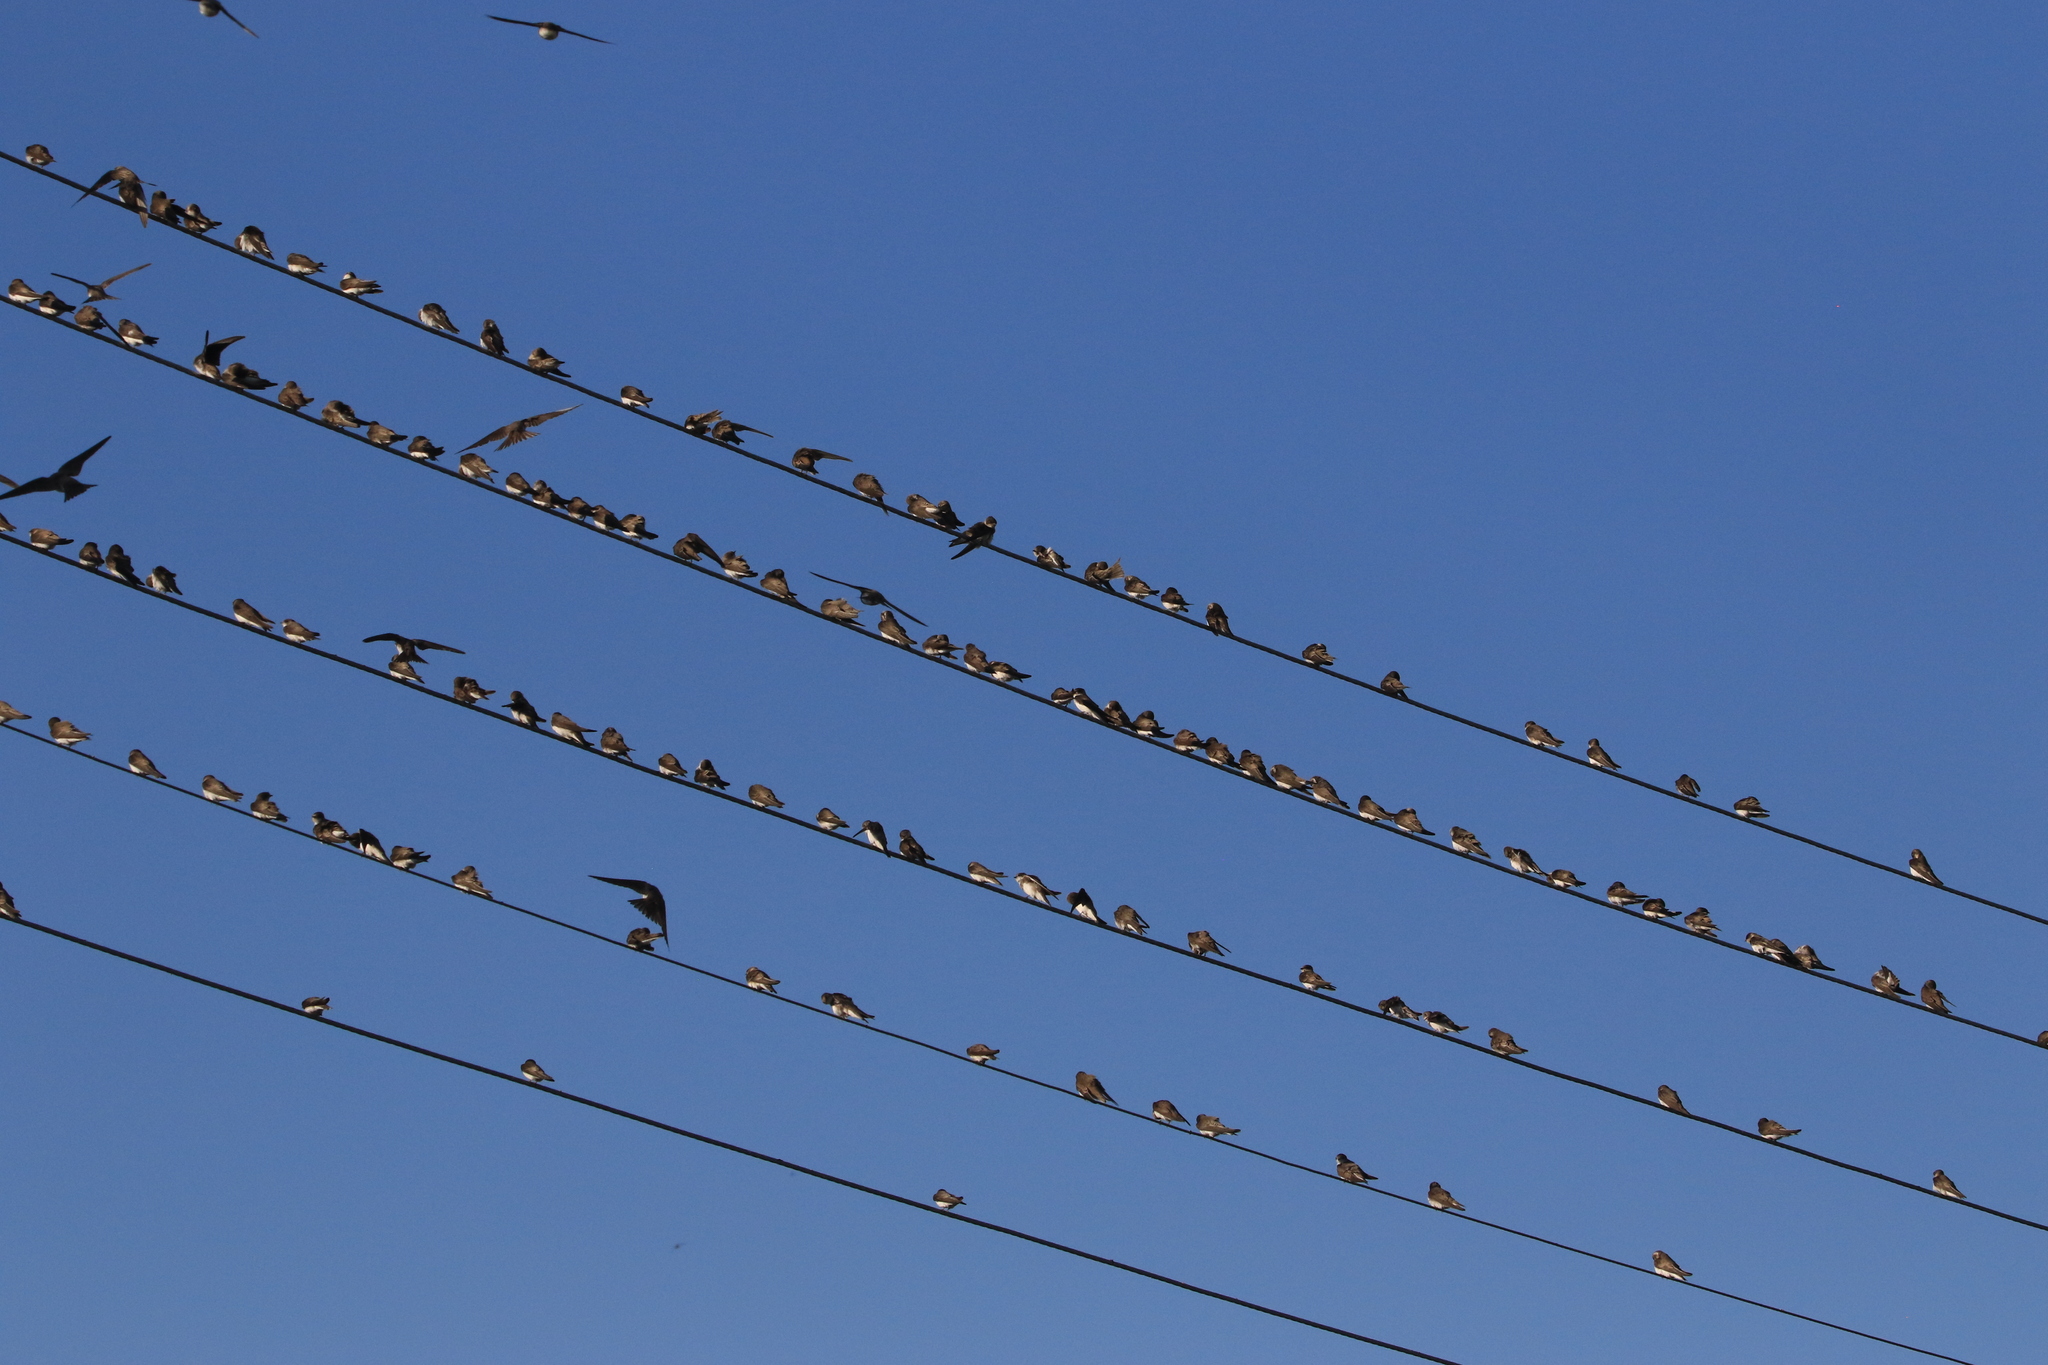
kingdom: Animalia
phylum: Chordata
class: Aves
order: Passeriformes
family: Hirundinidae
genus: Riparia
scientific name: Riparia riparia
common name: Sand martin
